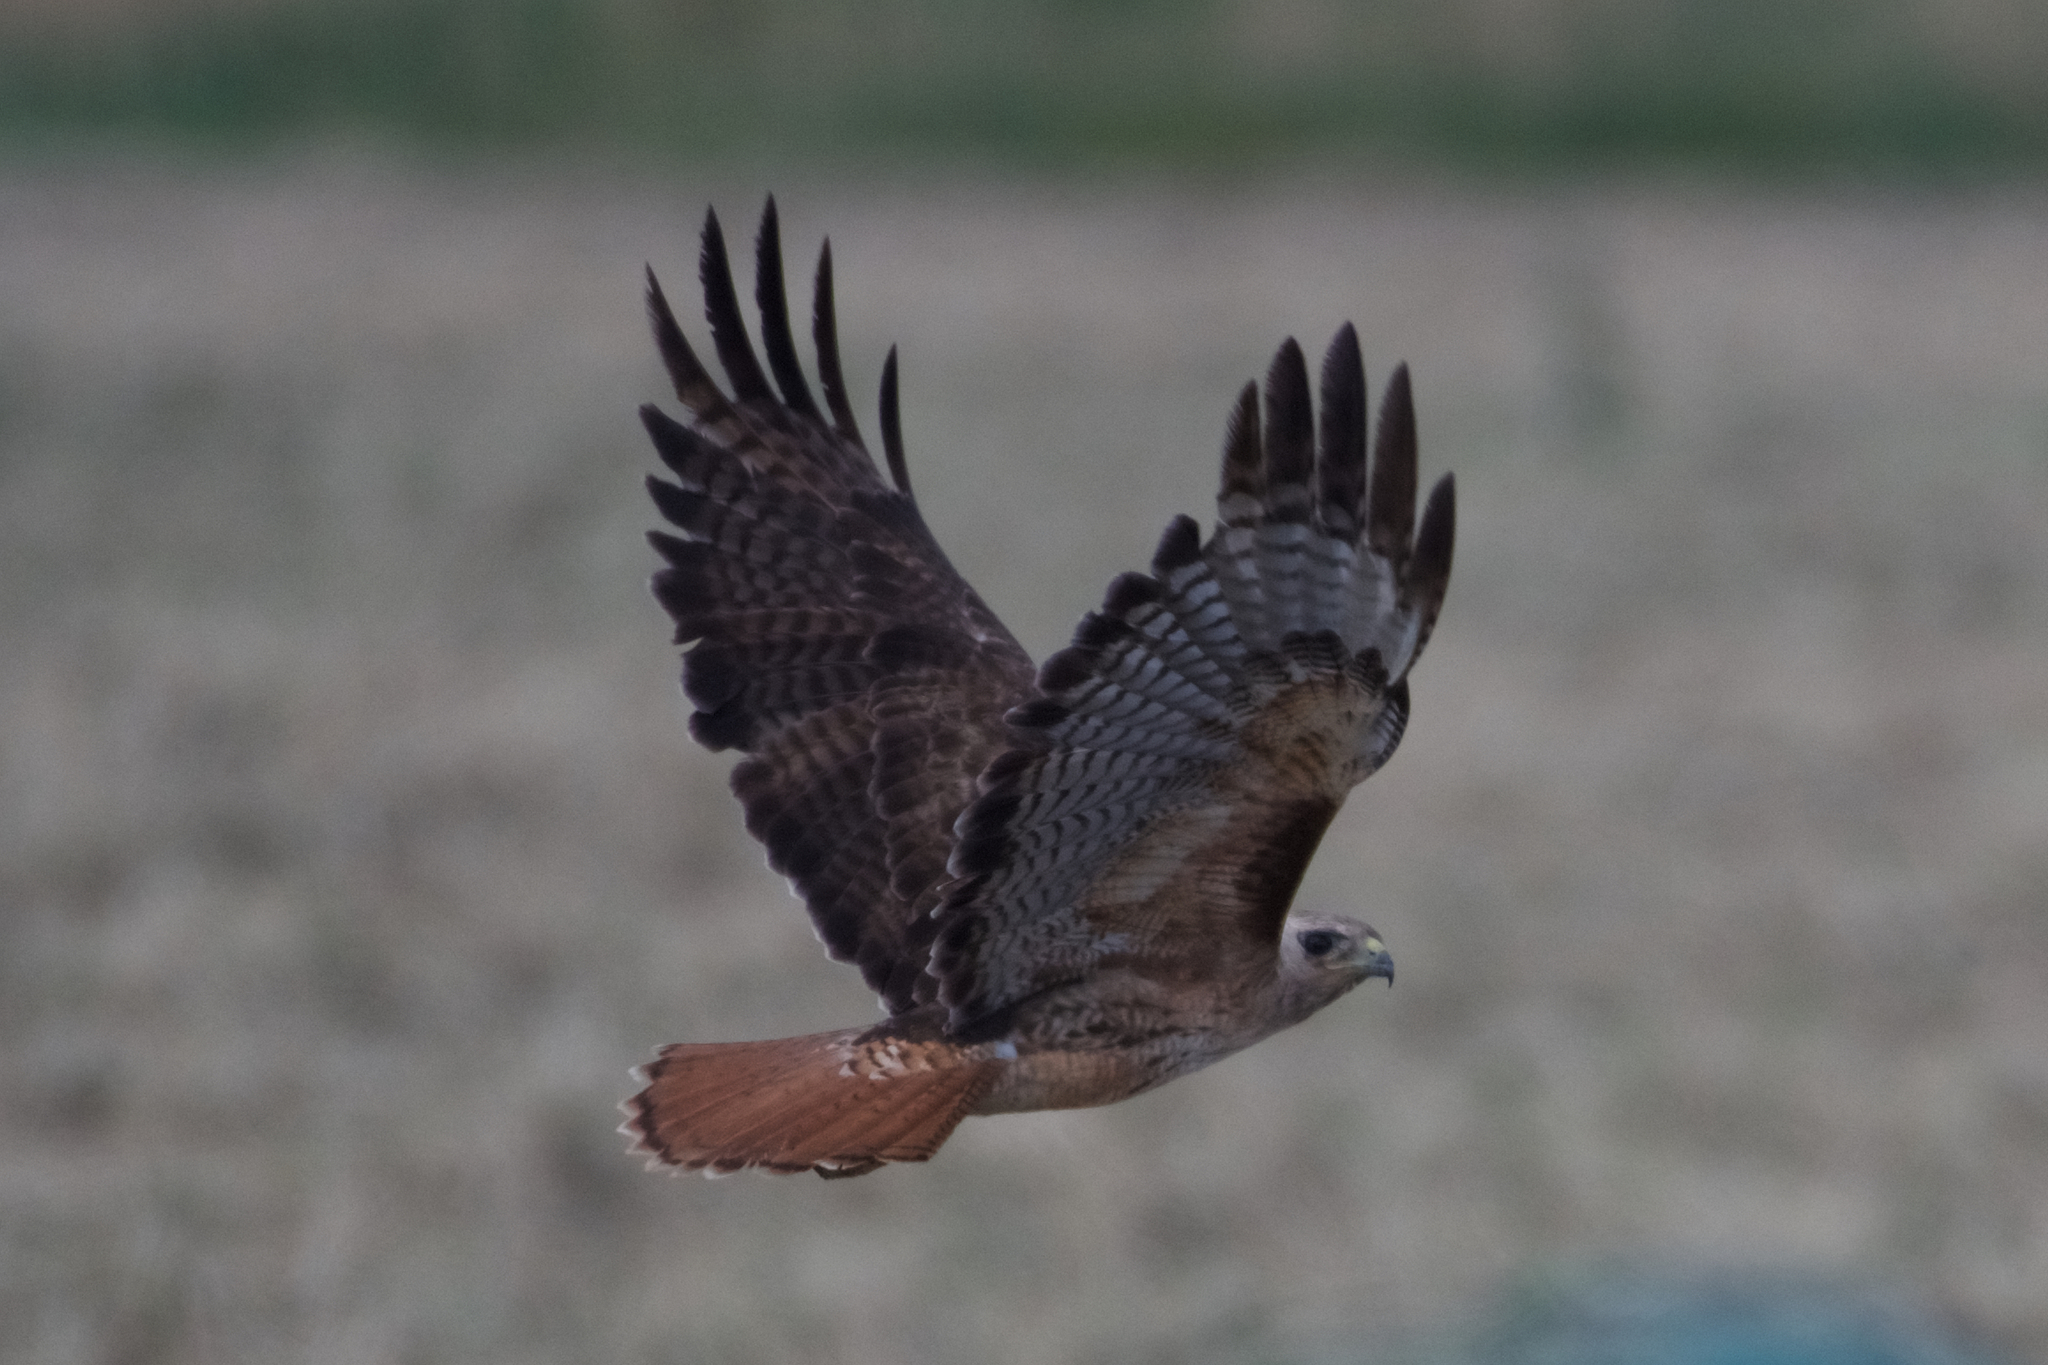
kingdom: Animalia
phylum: Chordata
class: Aves
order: Accipitriformes
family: Accipitridae
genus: Buteo
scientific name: Buteo jamaicensis
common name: Red-tailed hawk
